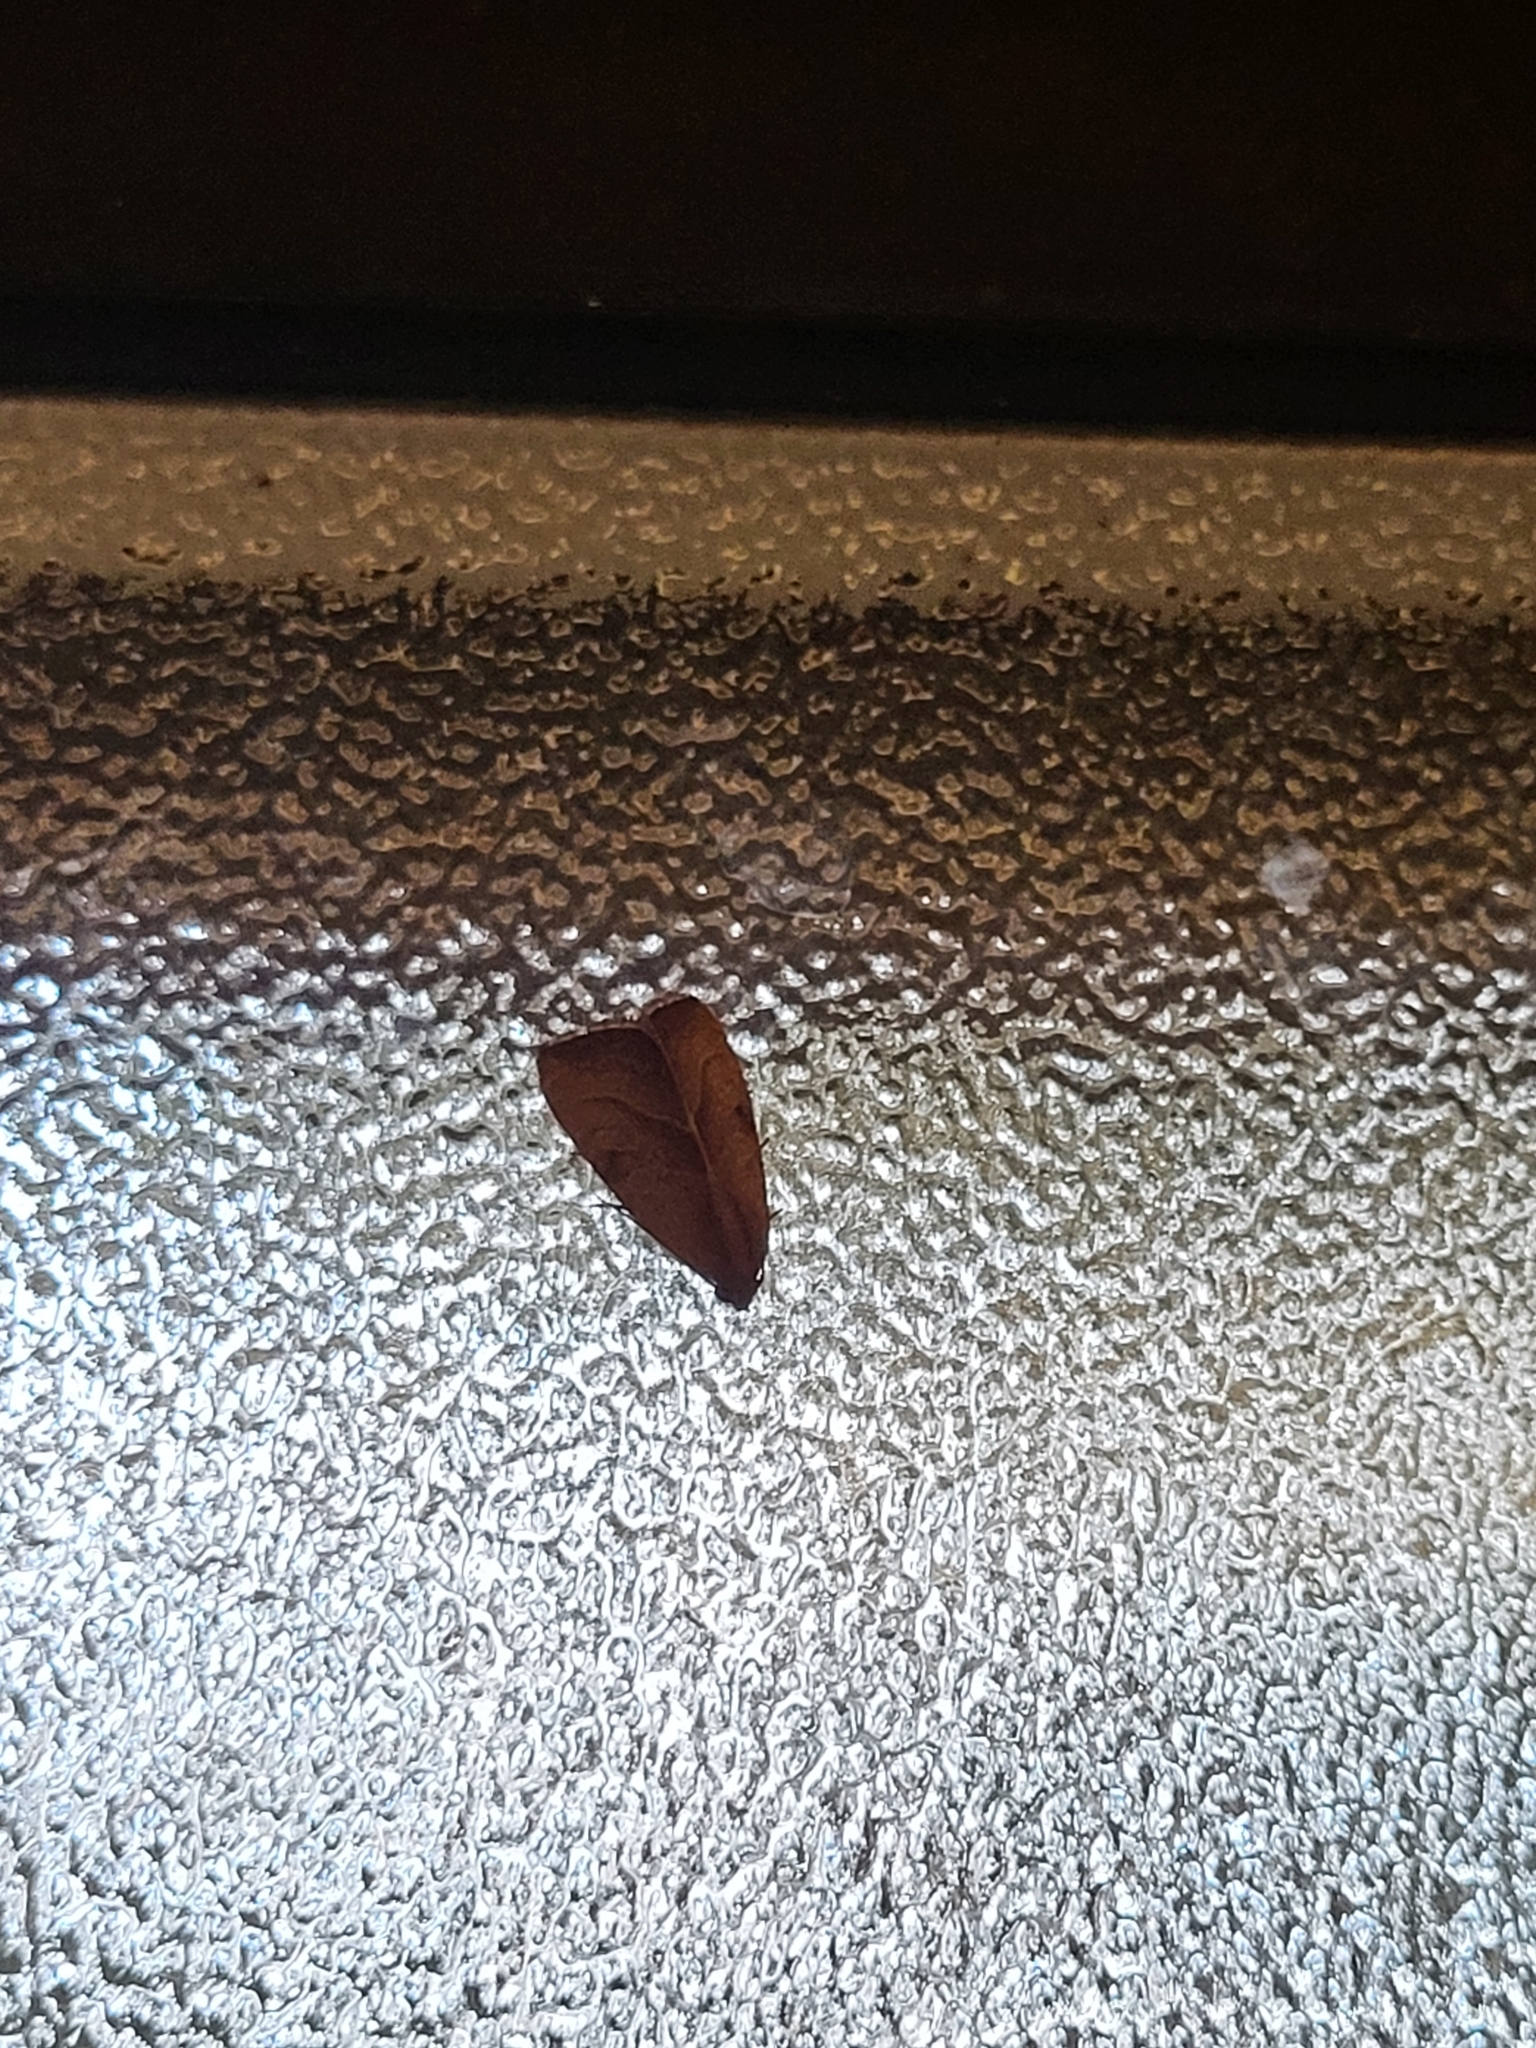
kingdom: Animalia
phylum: Arthropoda
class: Insecta
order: Lepidoptera
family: Noctuidae
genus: Galgula
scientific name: Galgula partita
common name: Wedgeling
